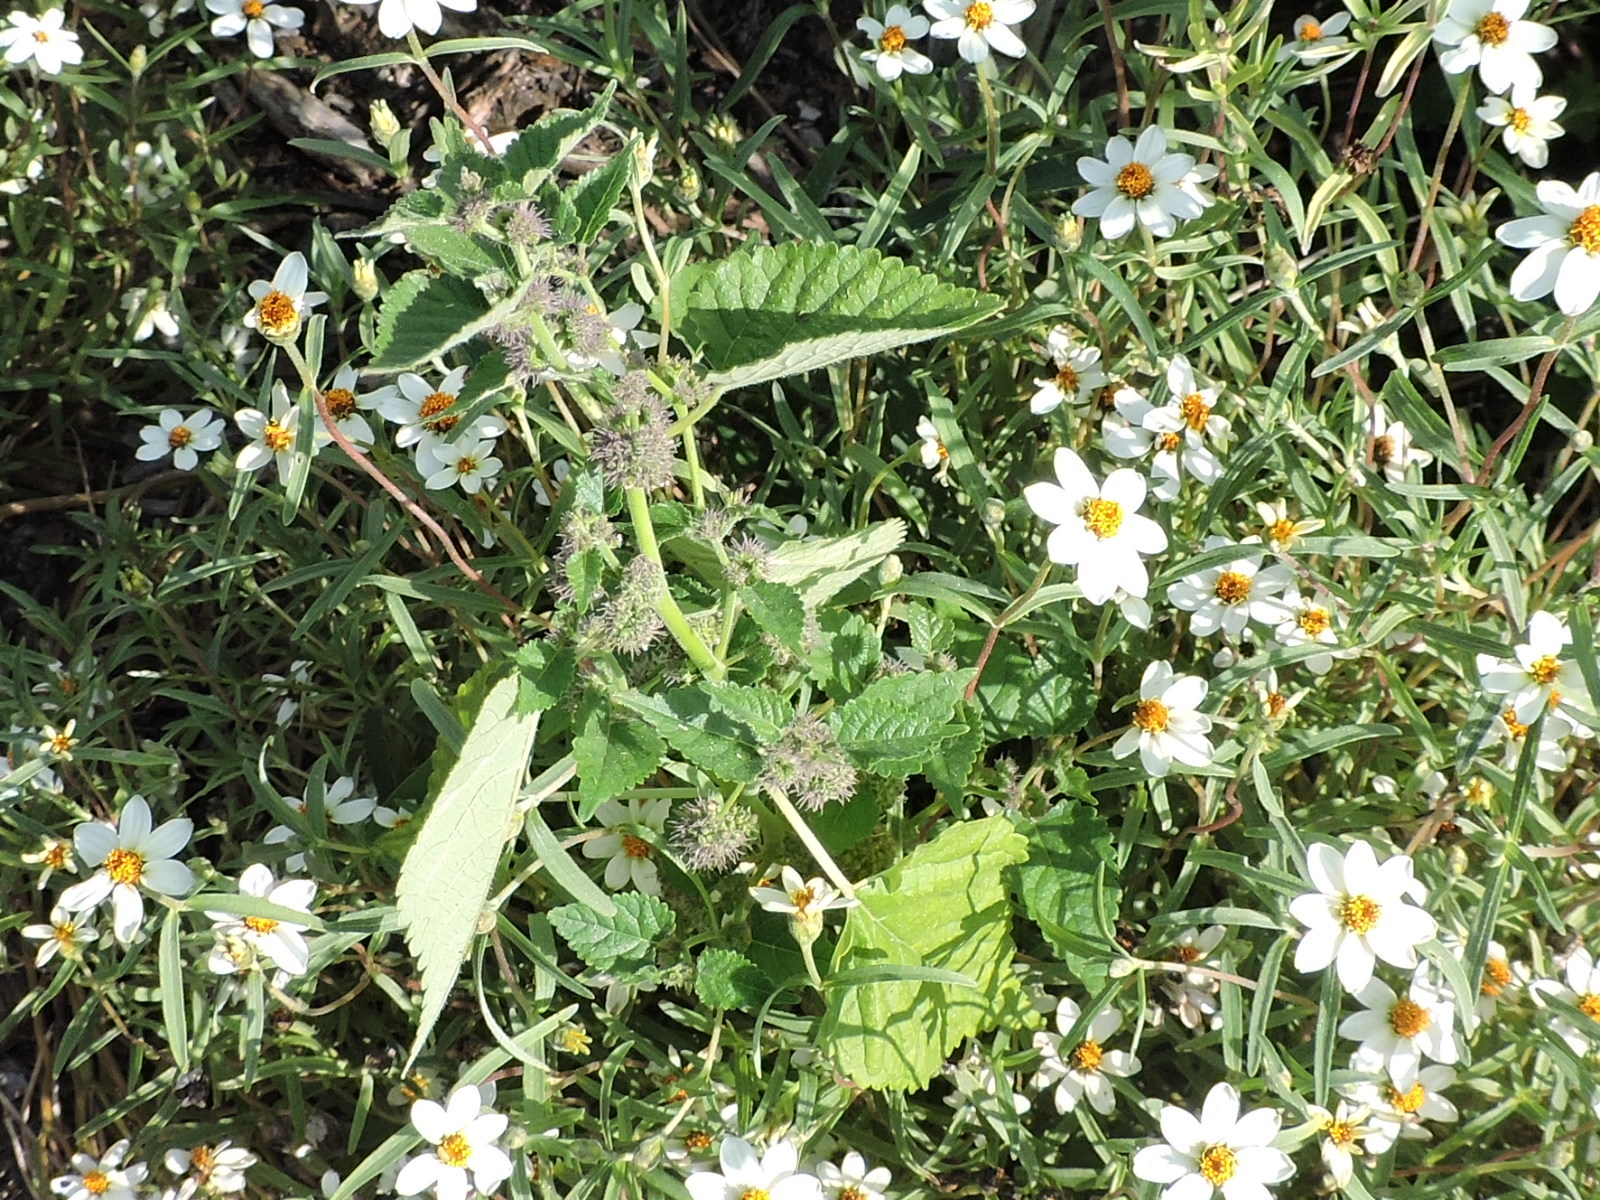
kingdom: Plantae
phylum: Tracheophyta
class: Magnoliopsida
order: Rosales
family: Moraceae
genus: Fatoua
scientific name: Fatoua villosa
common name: Hairy crabweed
